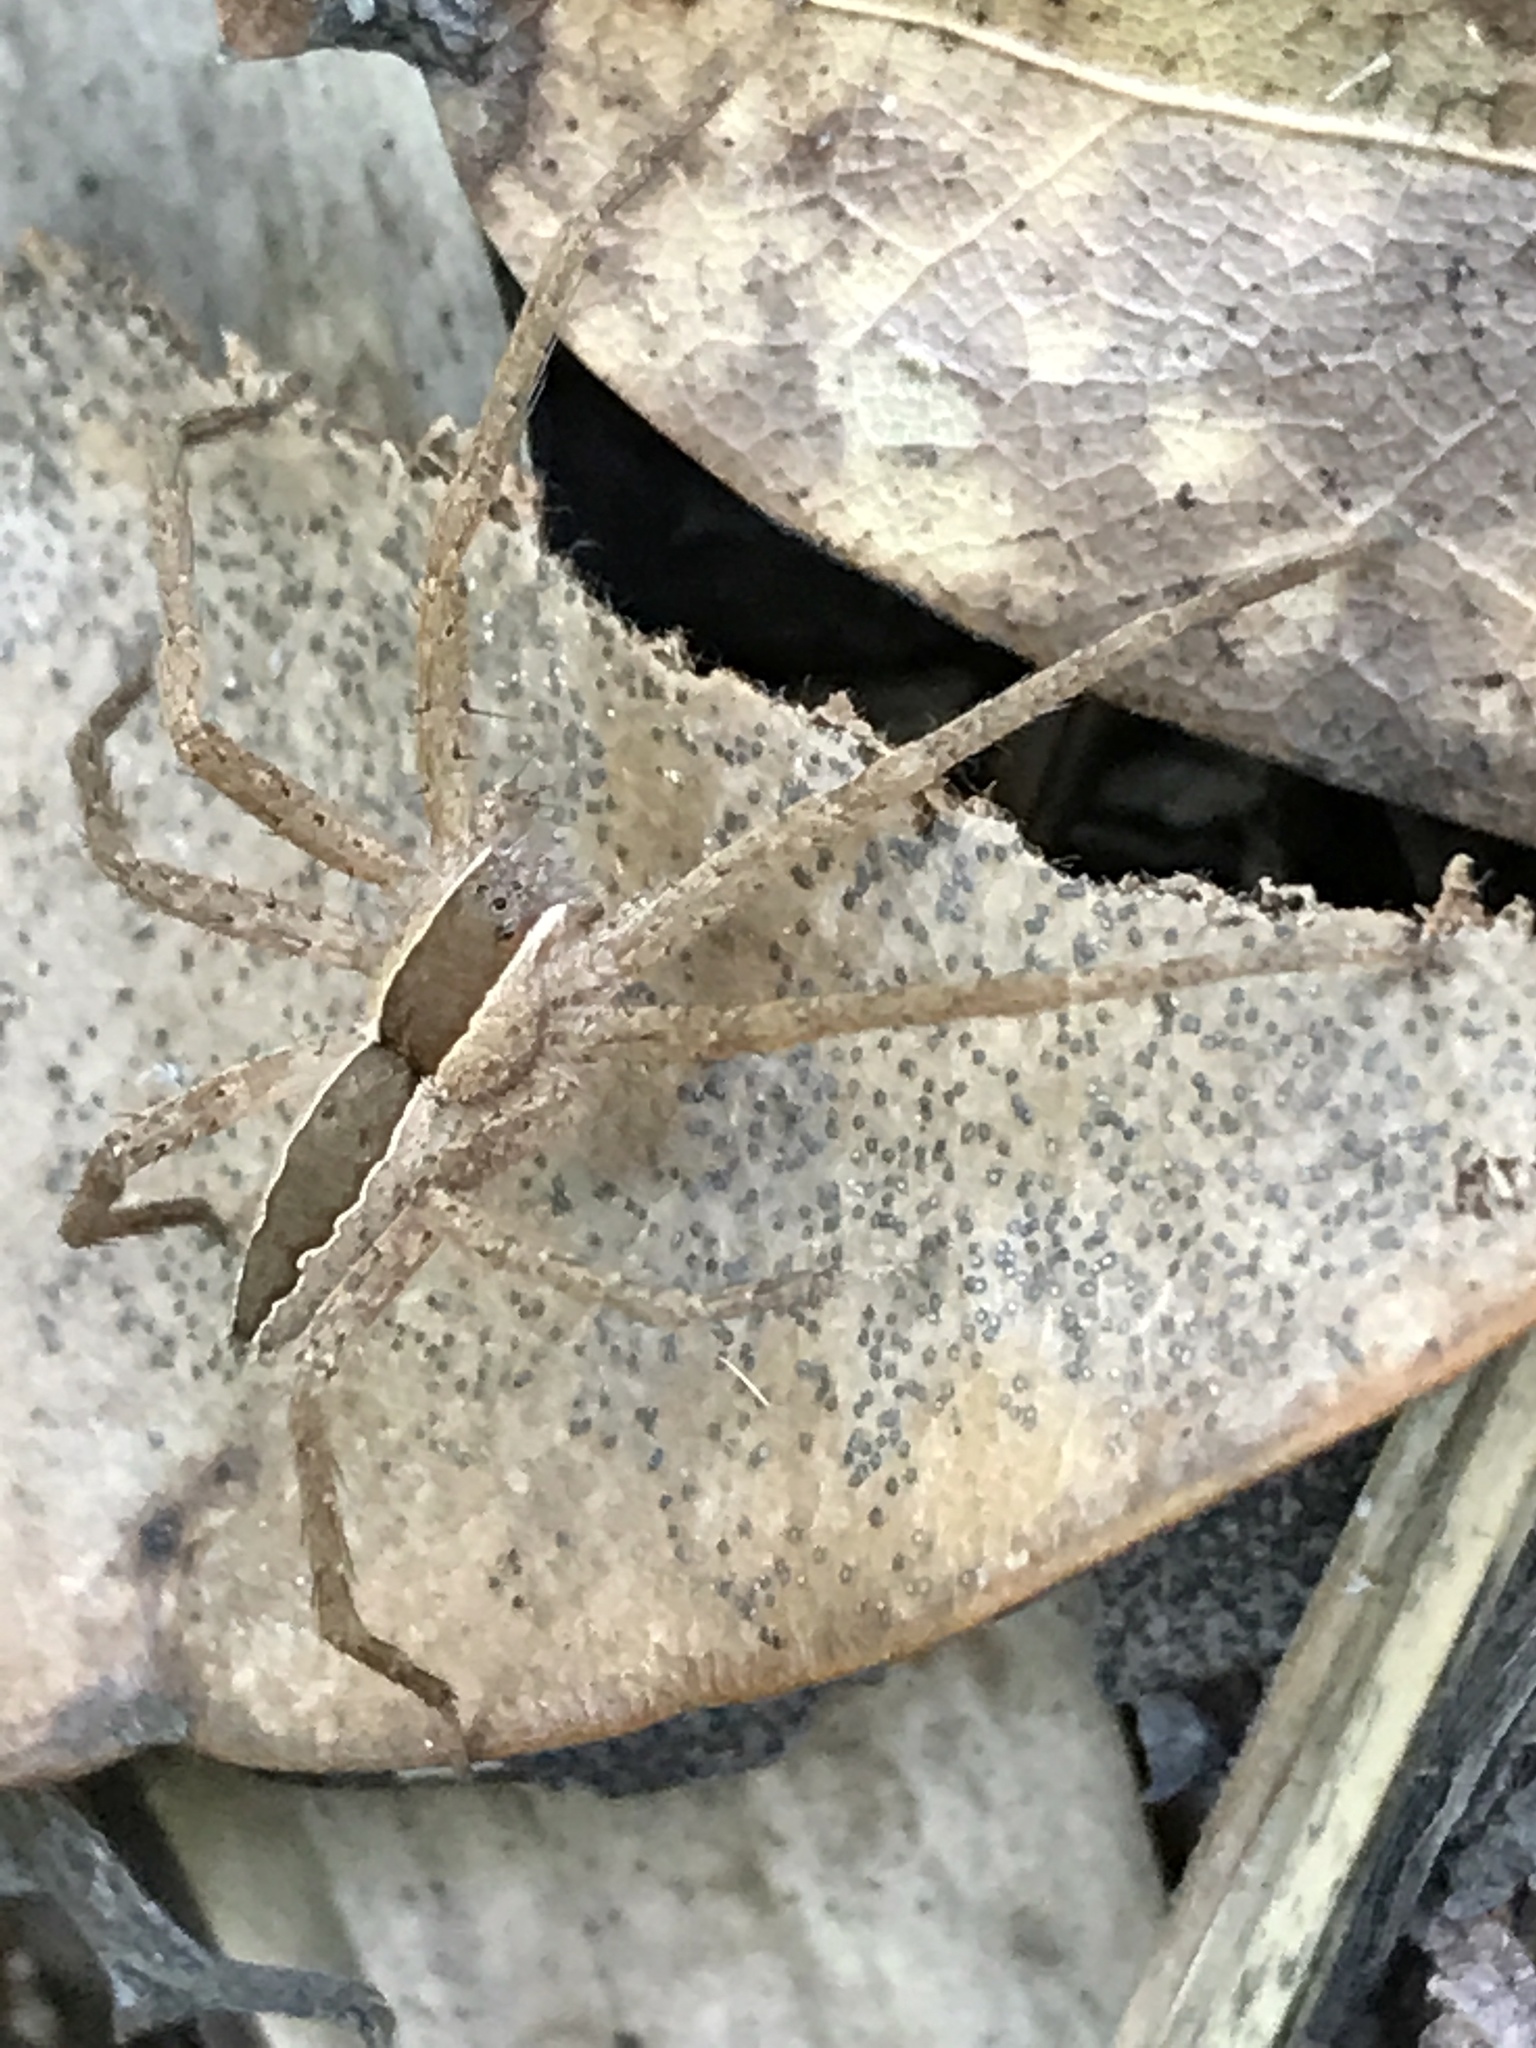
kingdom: Animalia
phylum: Arthropoda
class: Arachnida
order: Araneae
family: Pisauridae
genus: Pisaurina
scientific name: Pisaurina mira
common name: American nursery web spider
